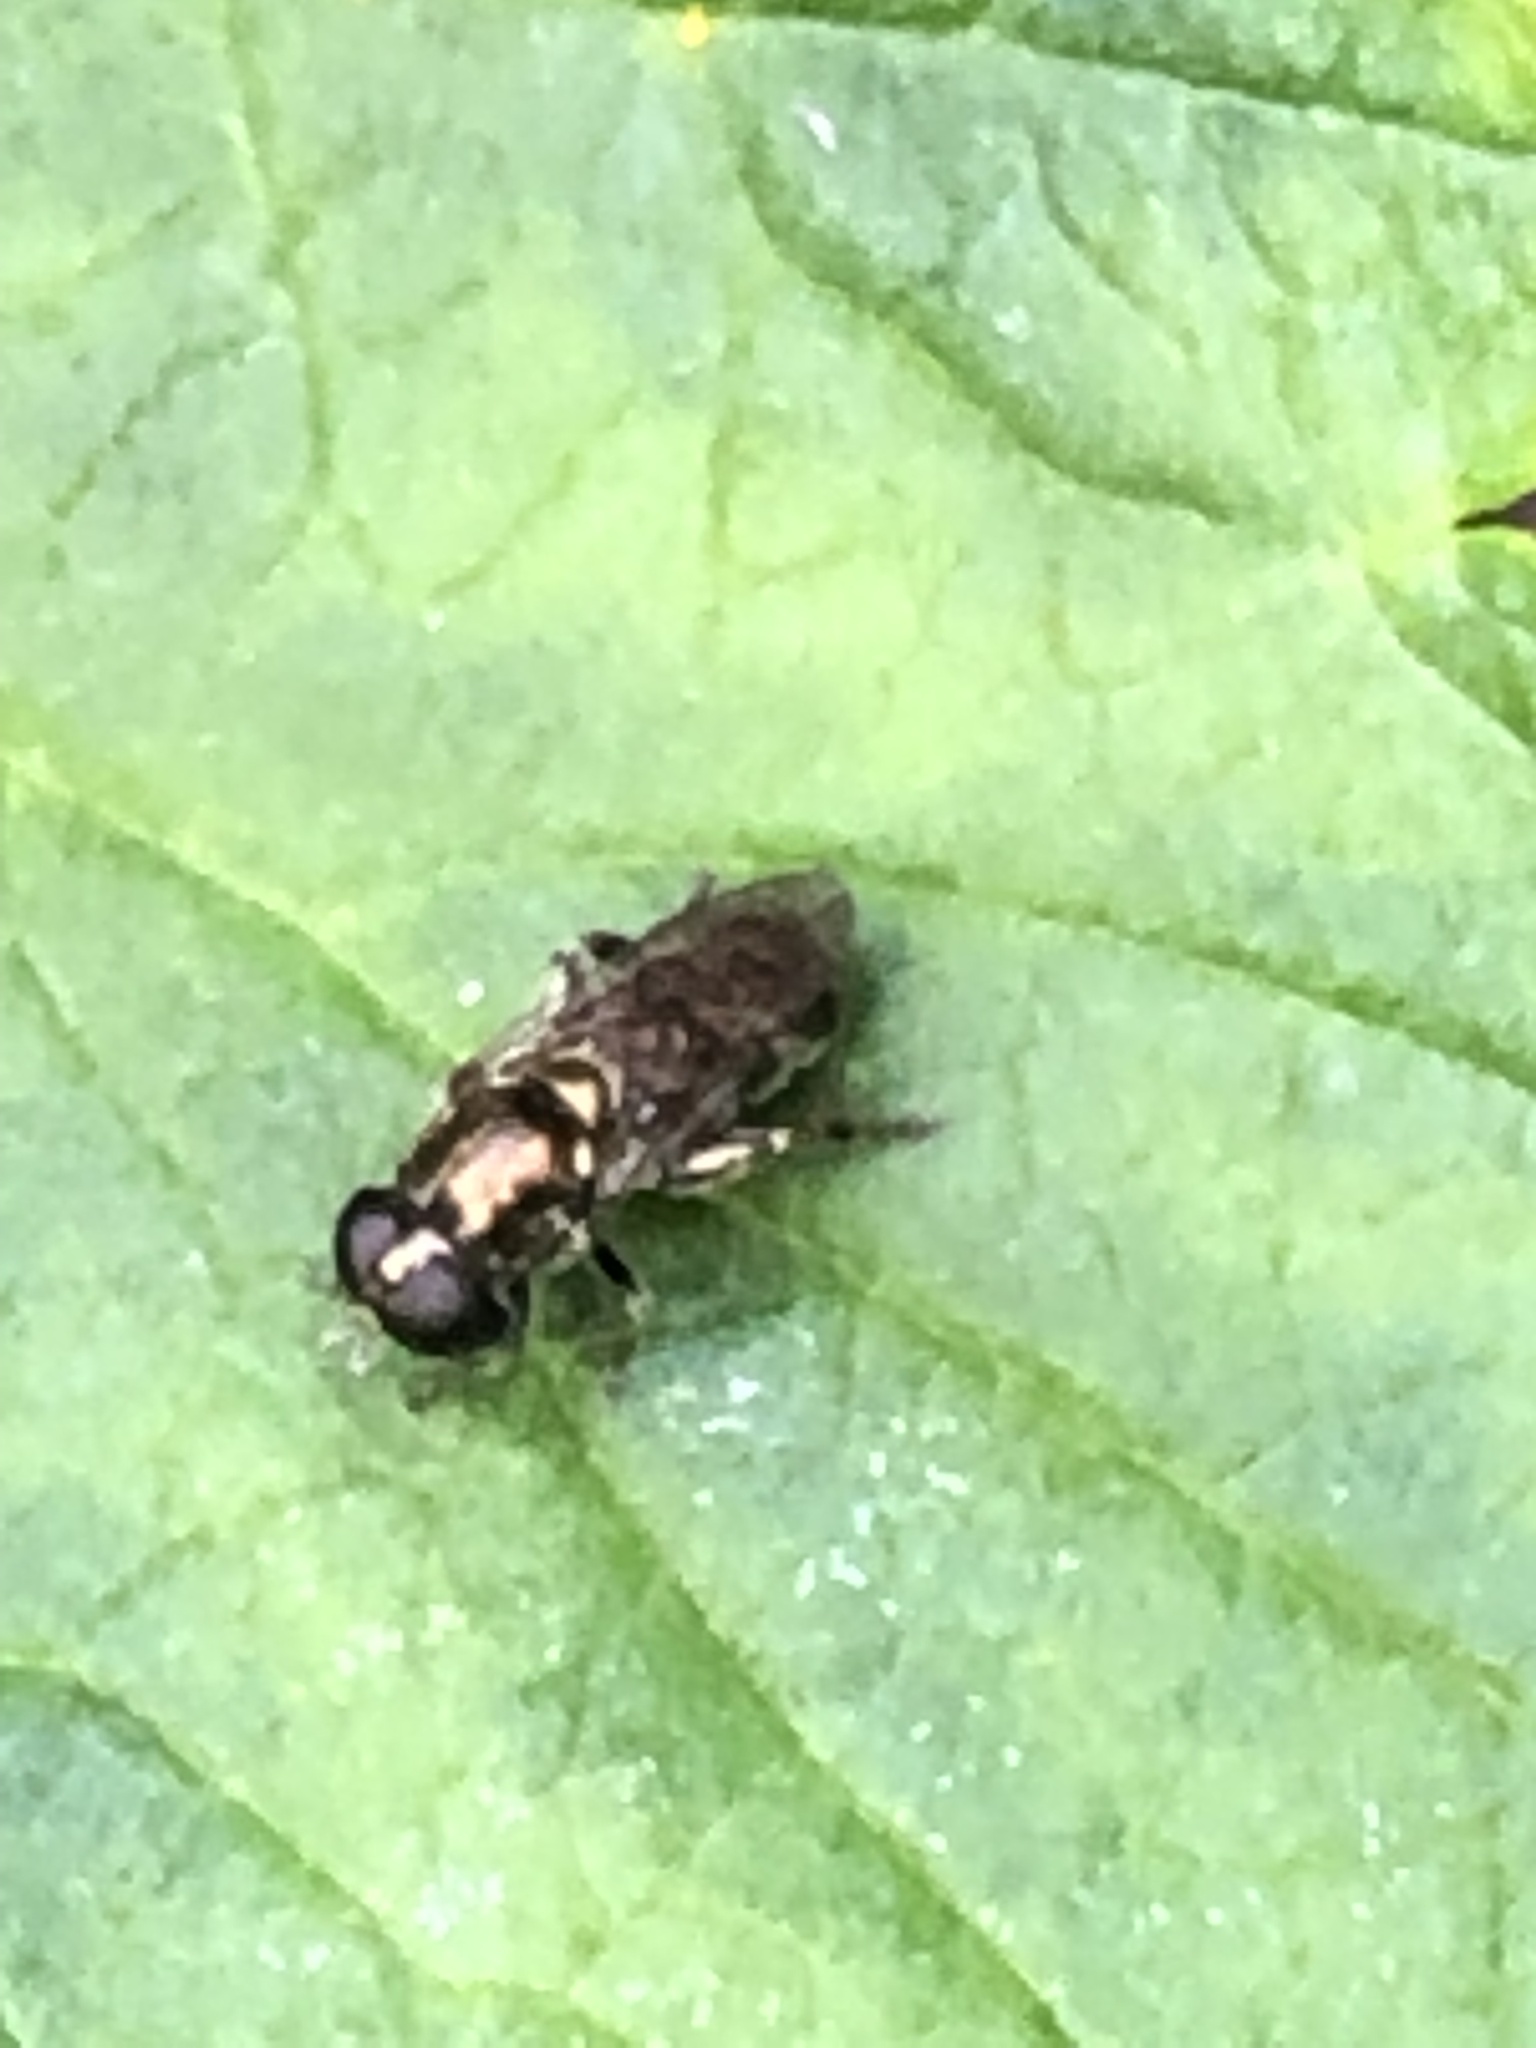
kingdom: Animalia
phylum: Arthropoda
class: Insecta
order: Diptera
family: Syrphidae
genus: Eumerus
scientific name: Eumerus
